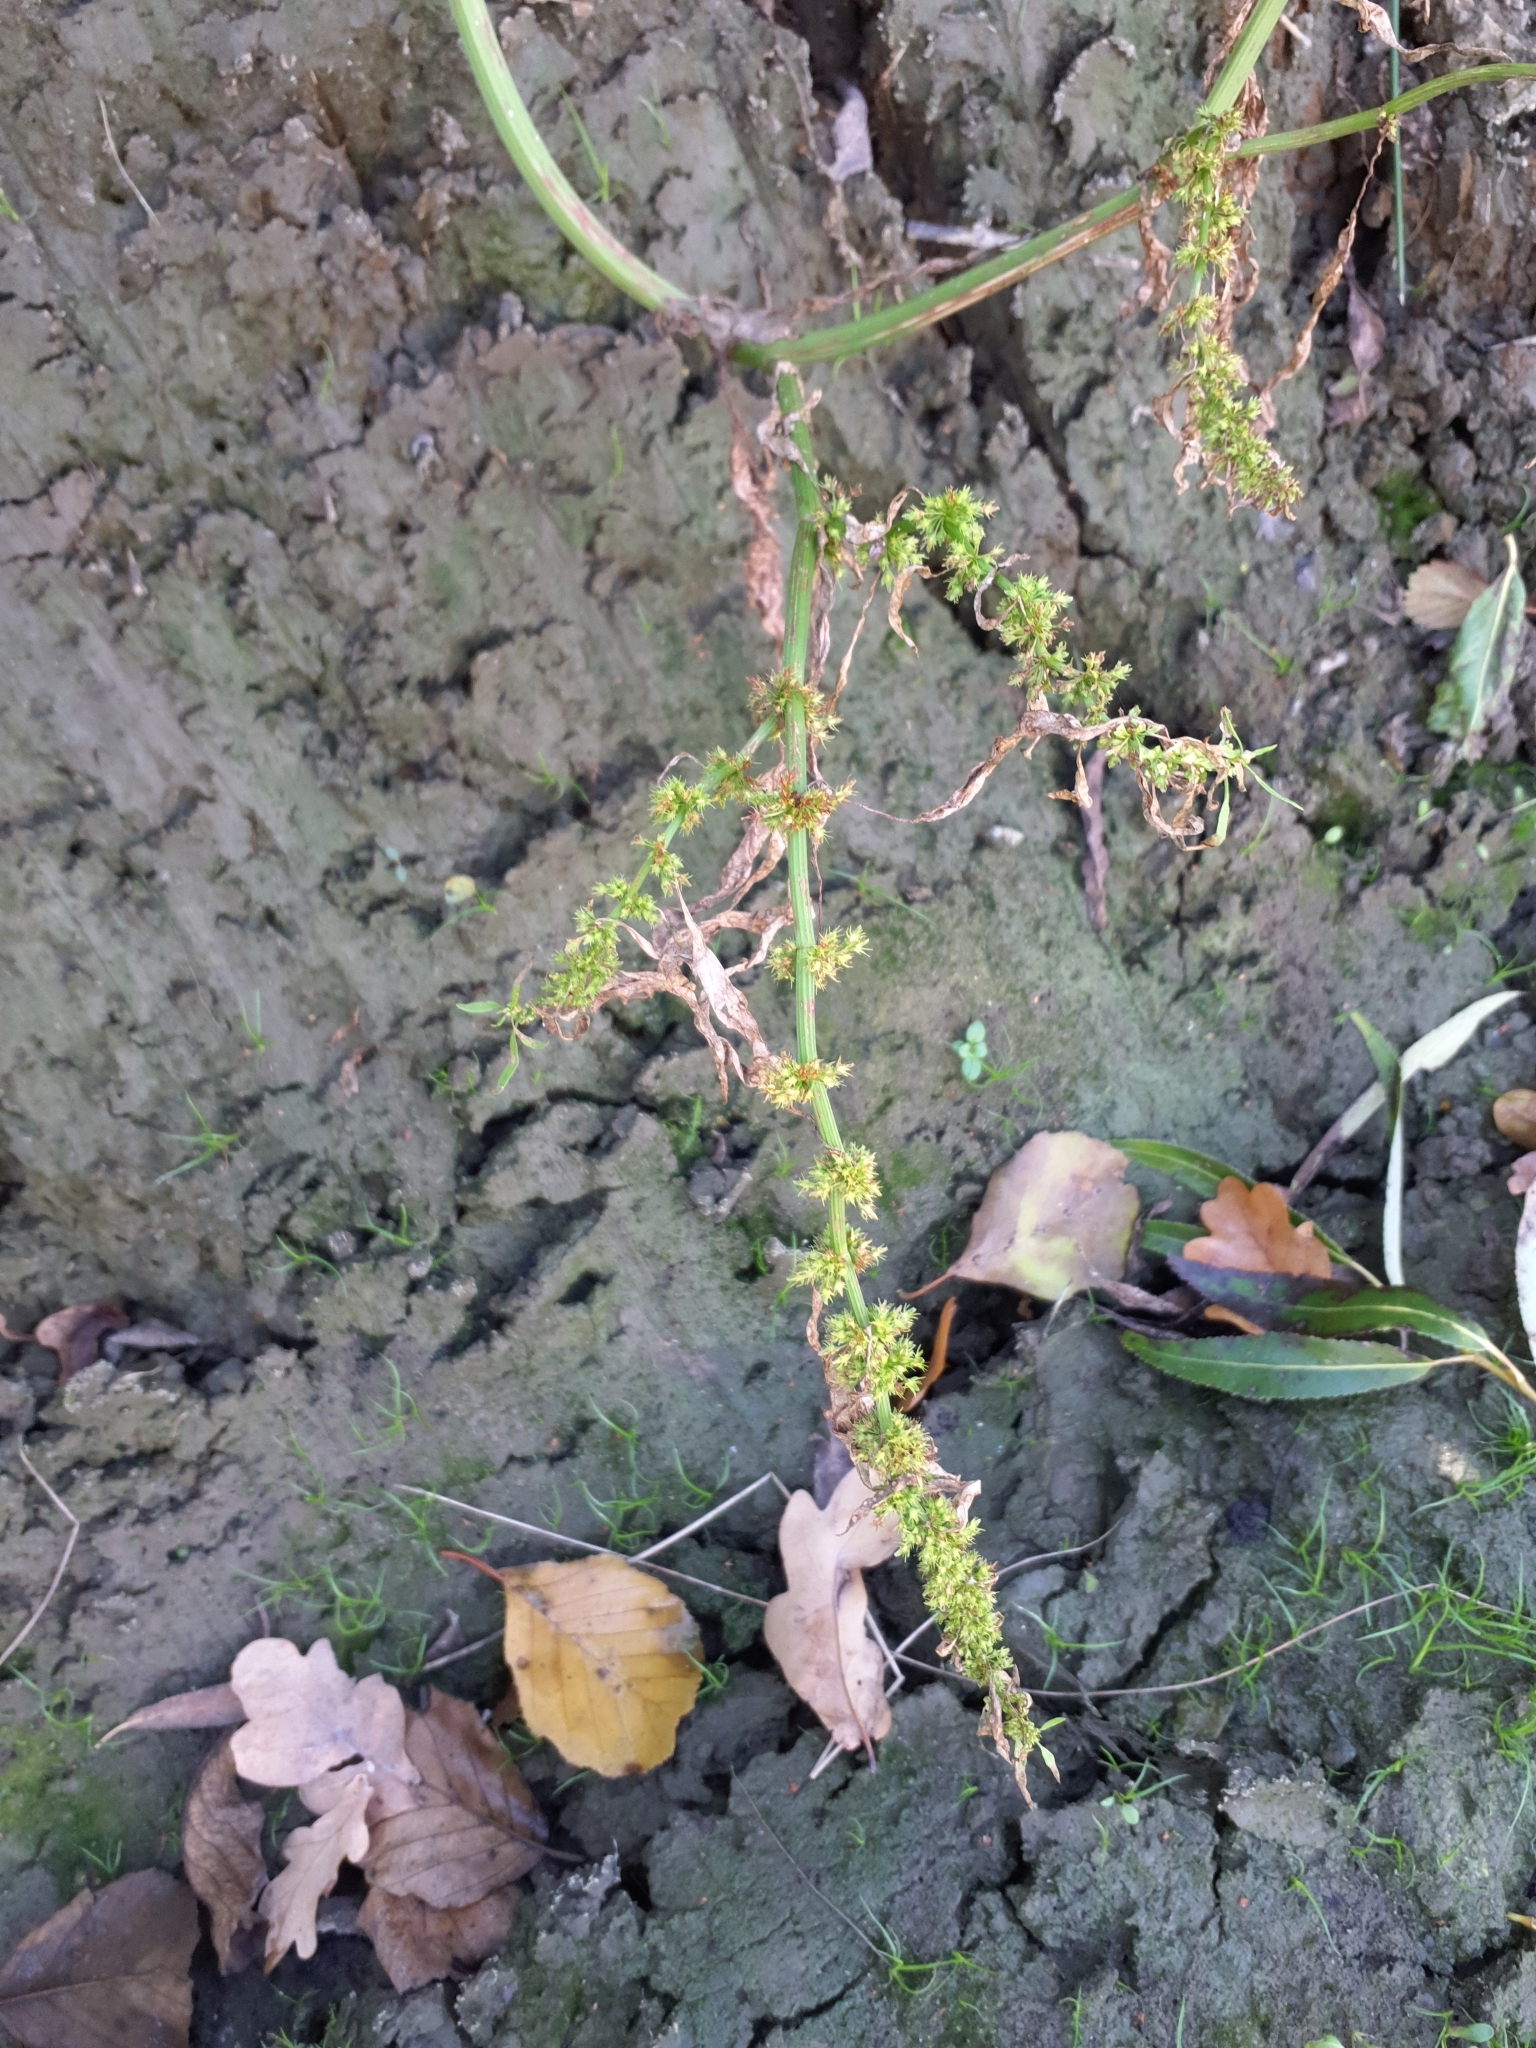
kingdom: Plantae
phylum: Tracheophyta
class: Magnoliopsida
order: Caryophyllales
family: Polygonaceae
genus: Rumex
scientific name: Rumex maritimus
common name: Golden dock
